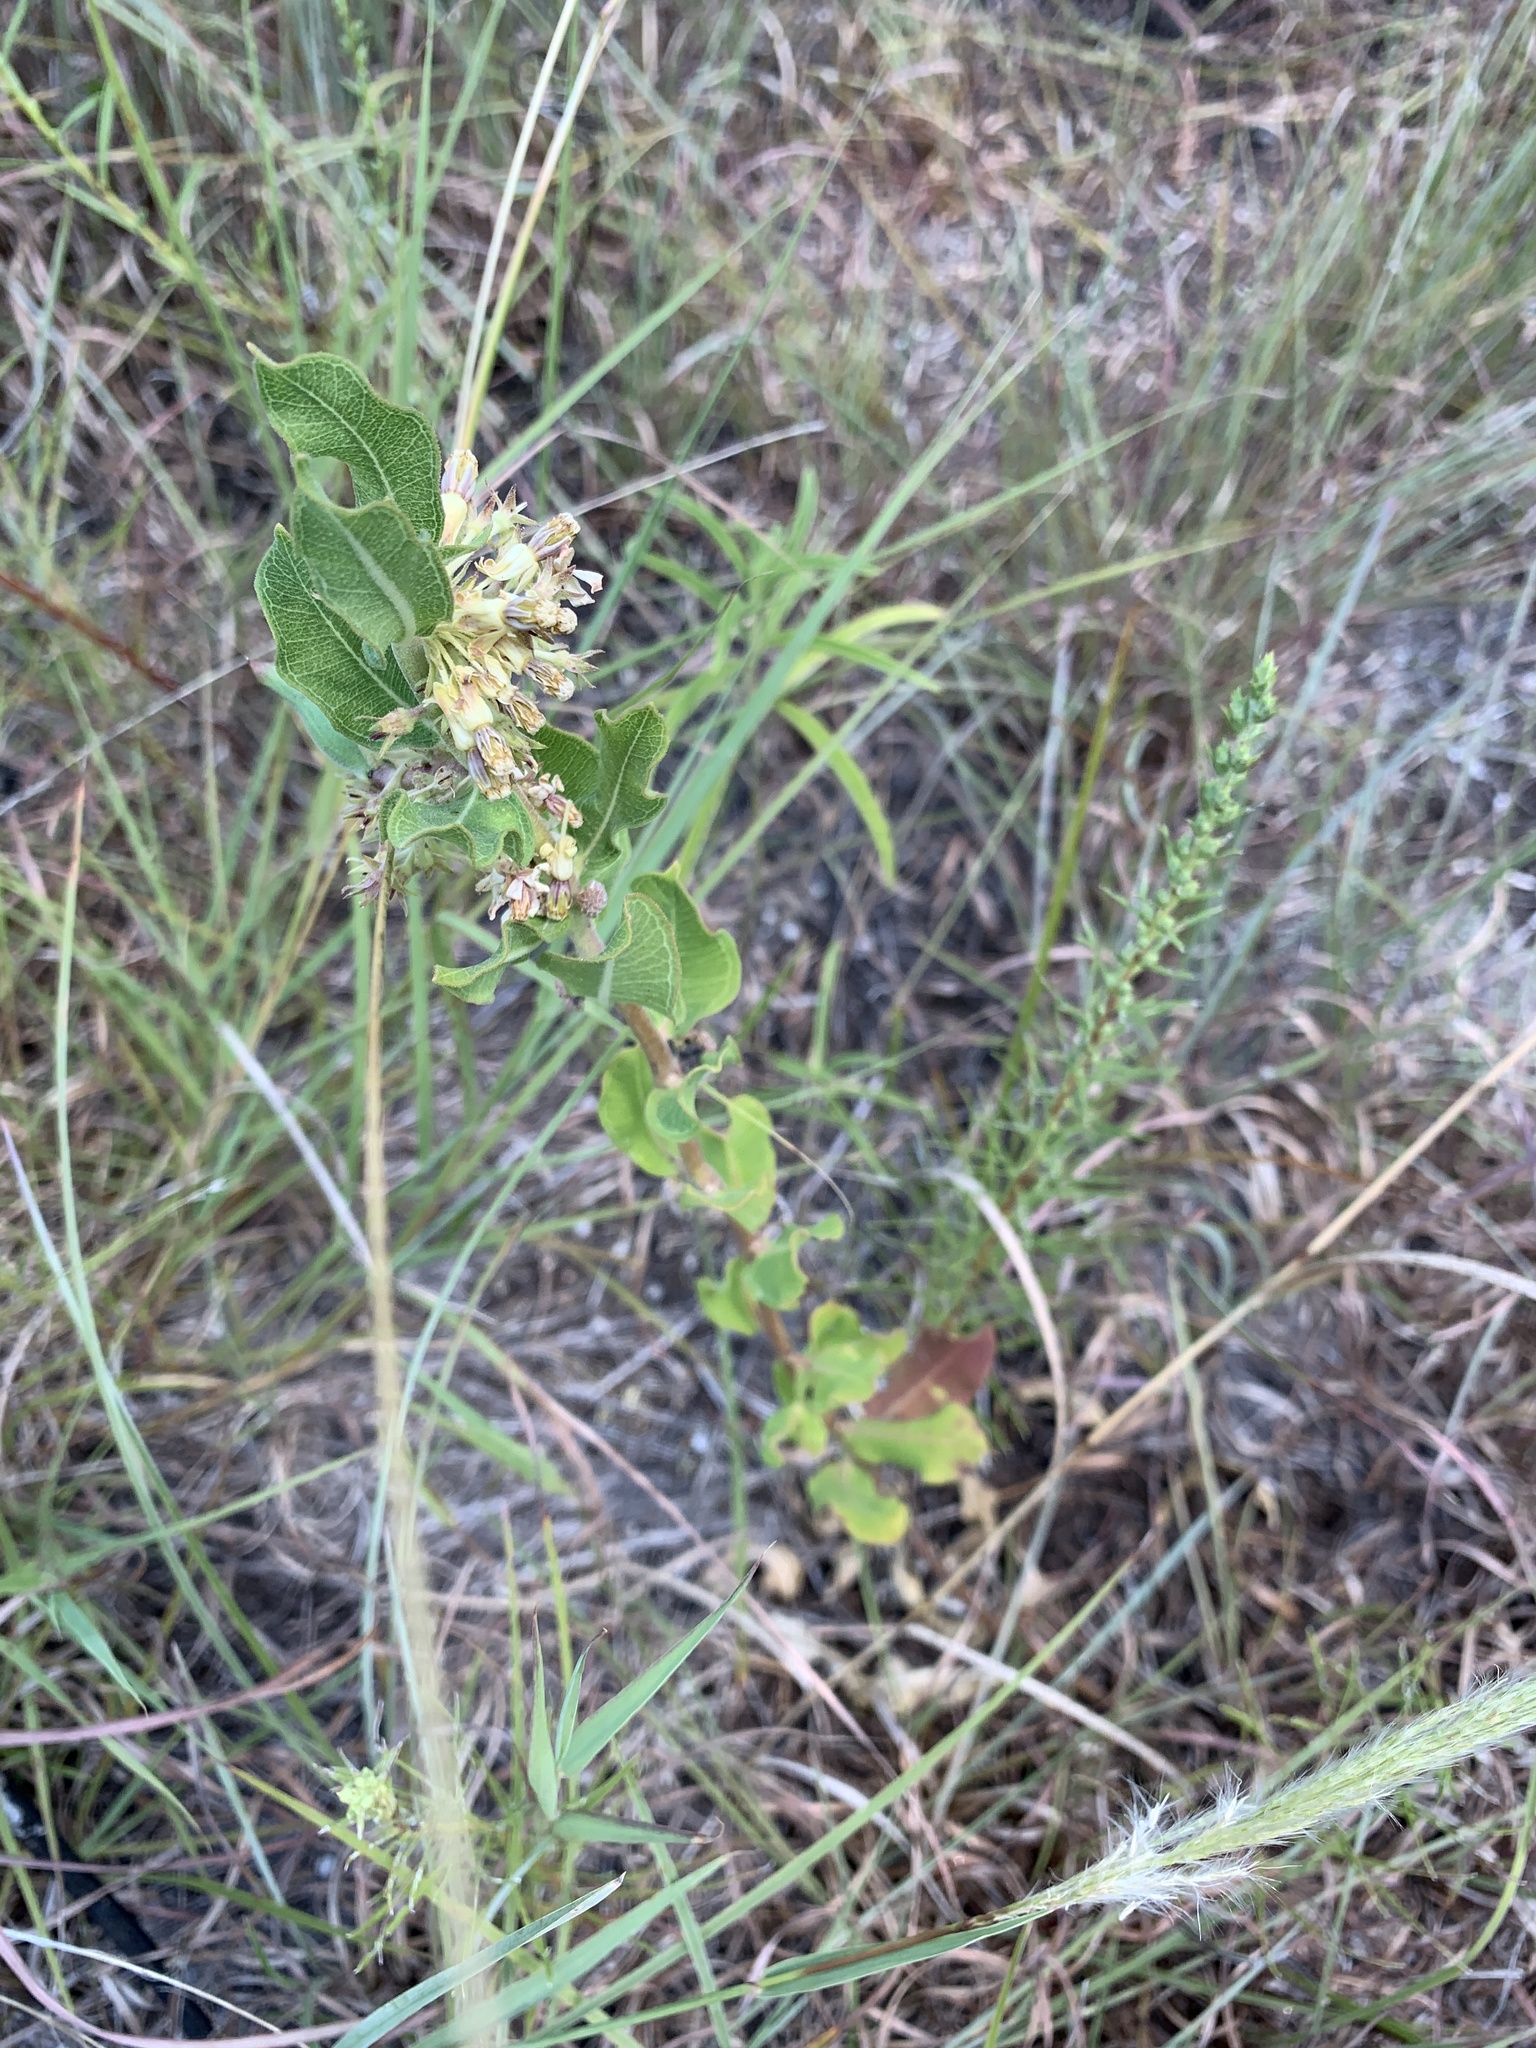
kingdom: Plantae
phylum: Tracheophyta
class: Magnoliopsida
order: Gentianales
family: Apocynaceae
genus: Asclepias
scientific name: Asclepias viridiflora
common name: Green comet milkweed
